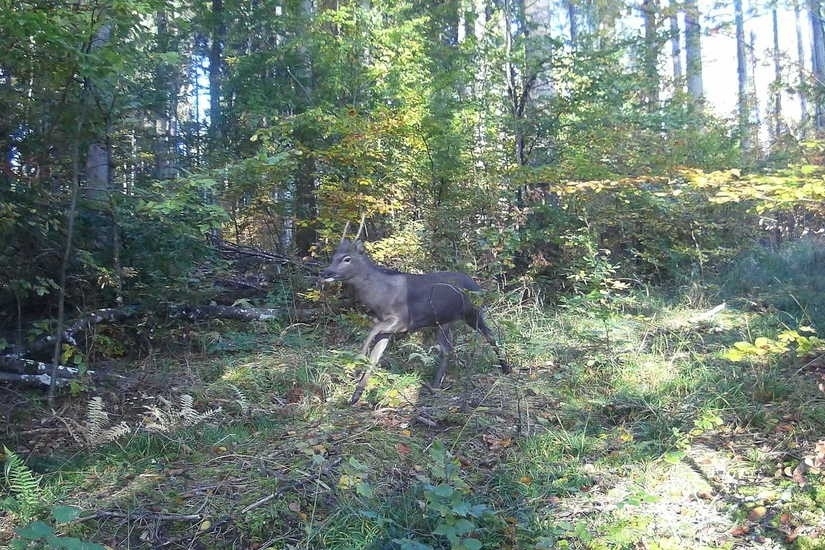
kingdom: Animalia
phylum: Chordata
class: Mammalia
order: Artiodactyla
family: Cervidae
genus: Capreolus
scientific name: Capreolus capreolus
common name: Western roe deer
